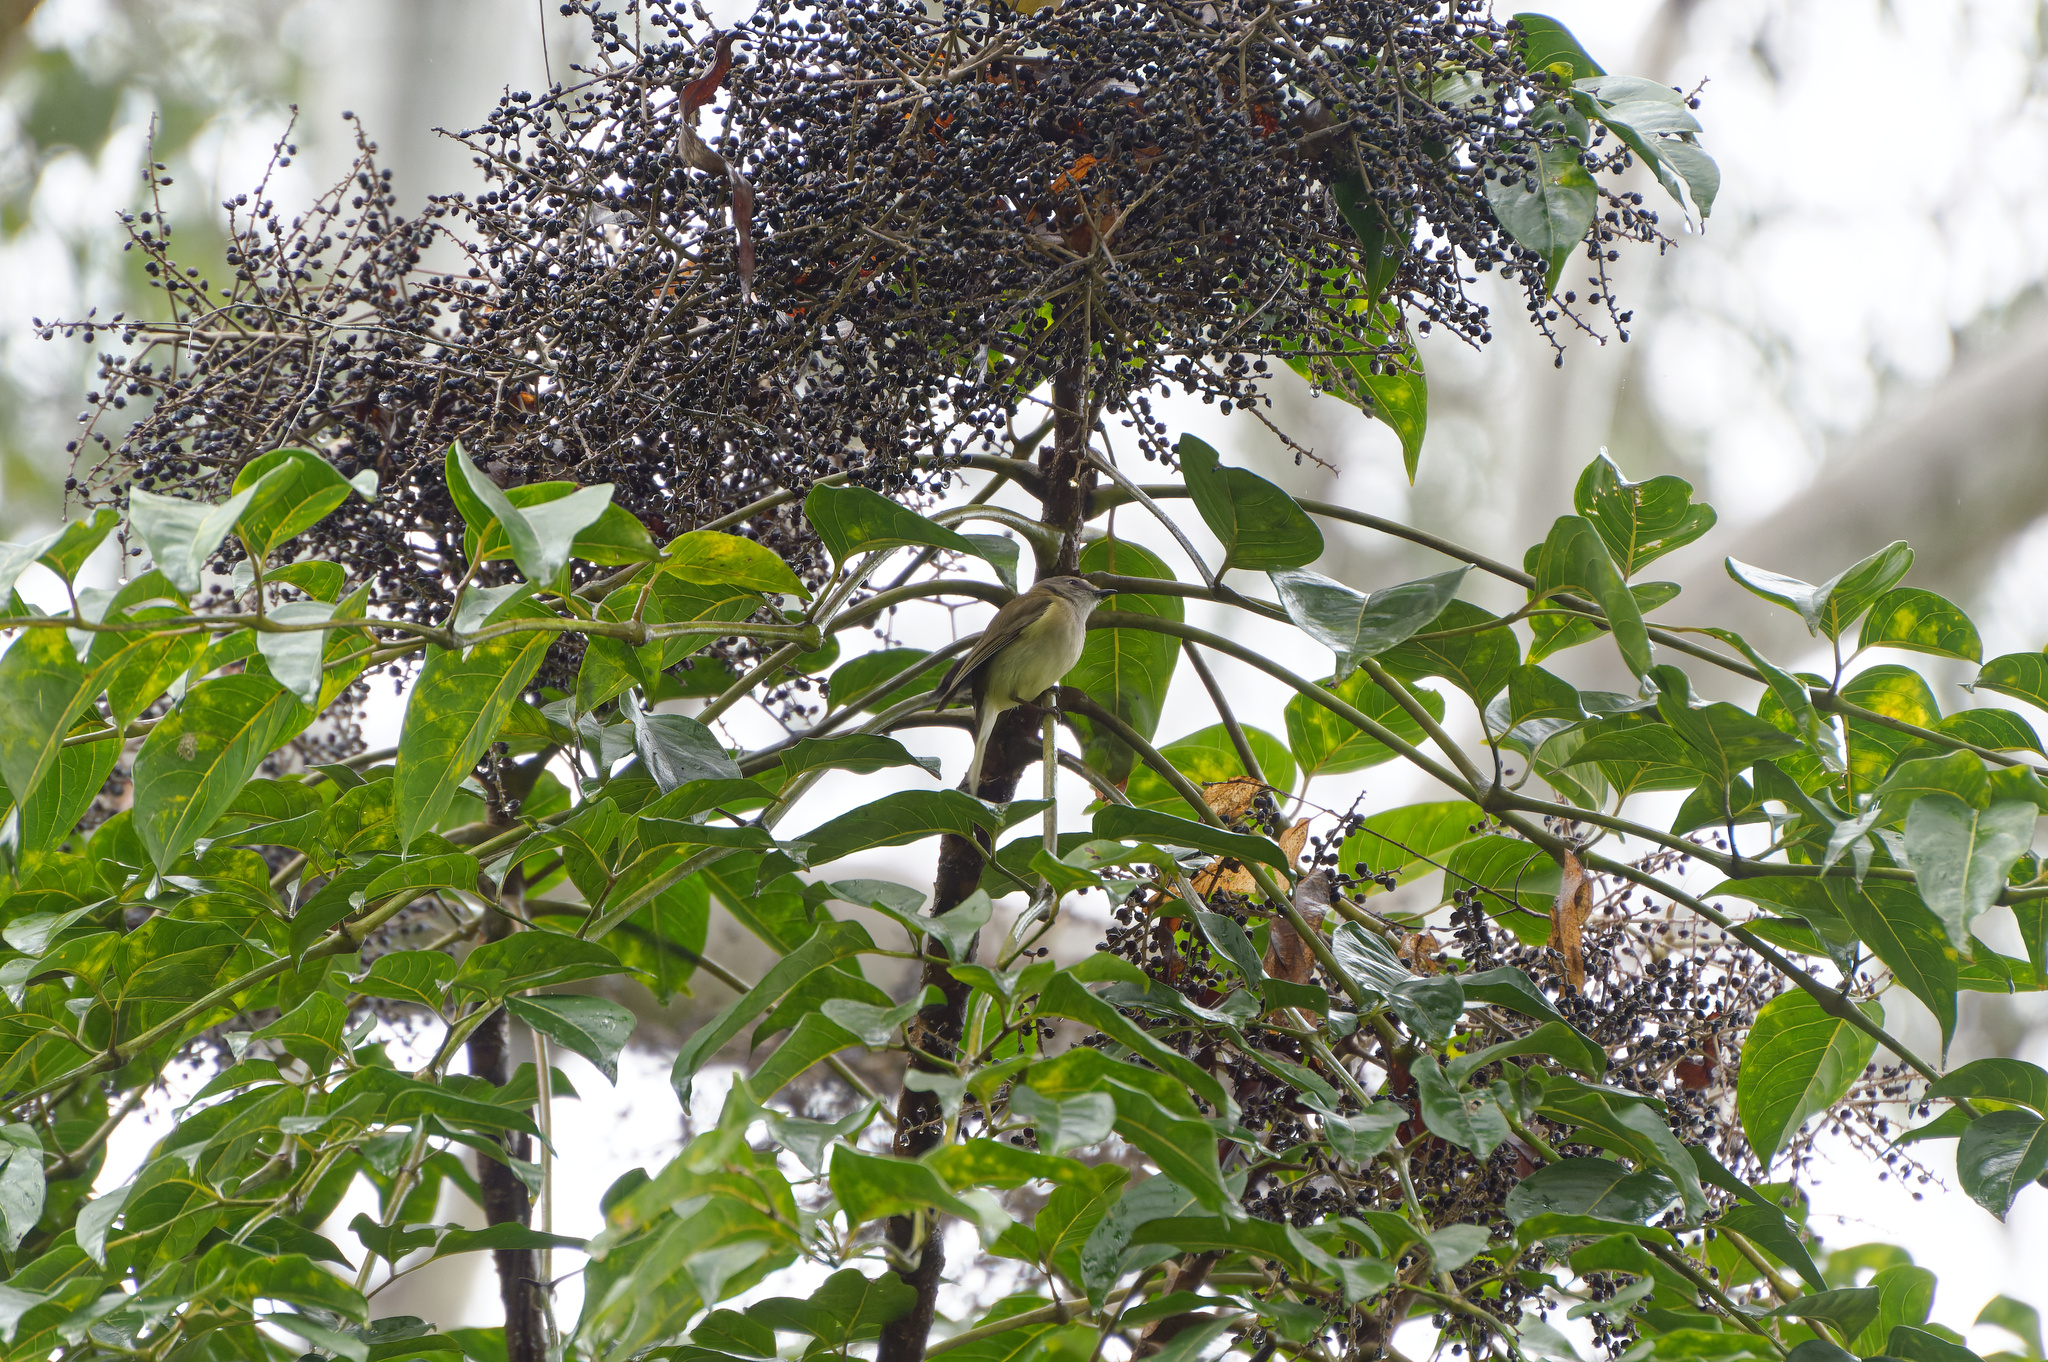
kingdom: Plantae
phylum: Tracheophyta
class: Magnoliopsida
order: Apiales
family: Araliaceae
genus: Polyscias
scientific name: Polyscias elegans
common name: Mowbulan whitewood
